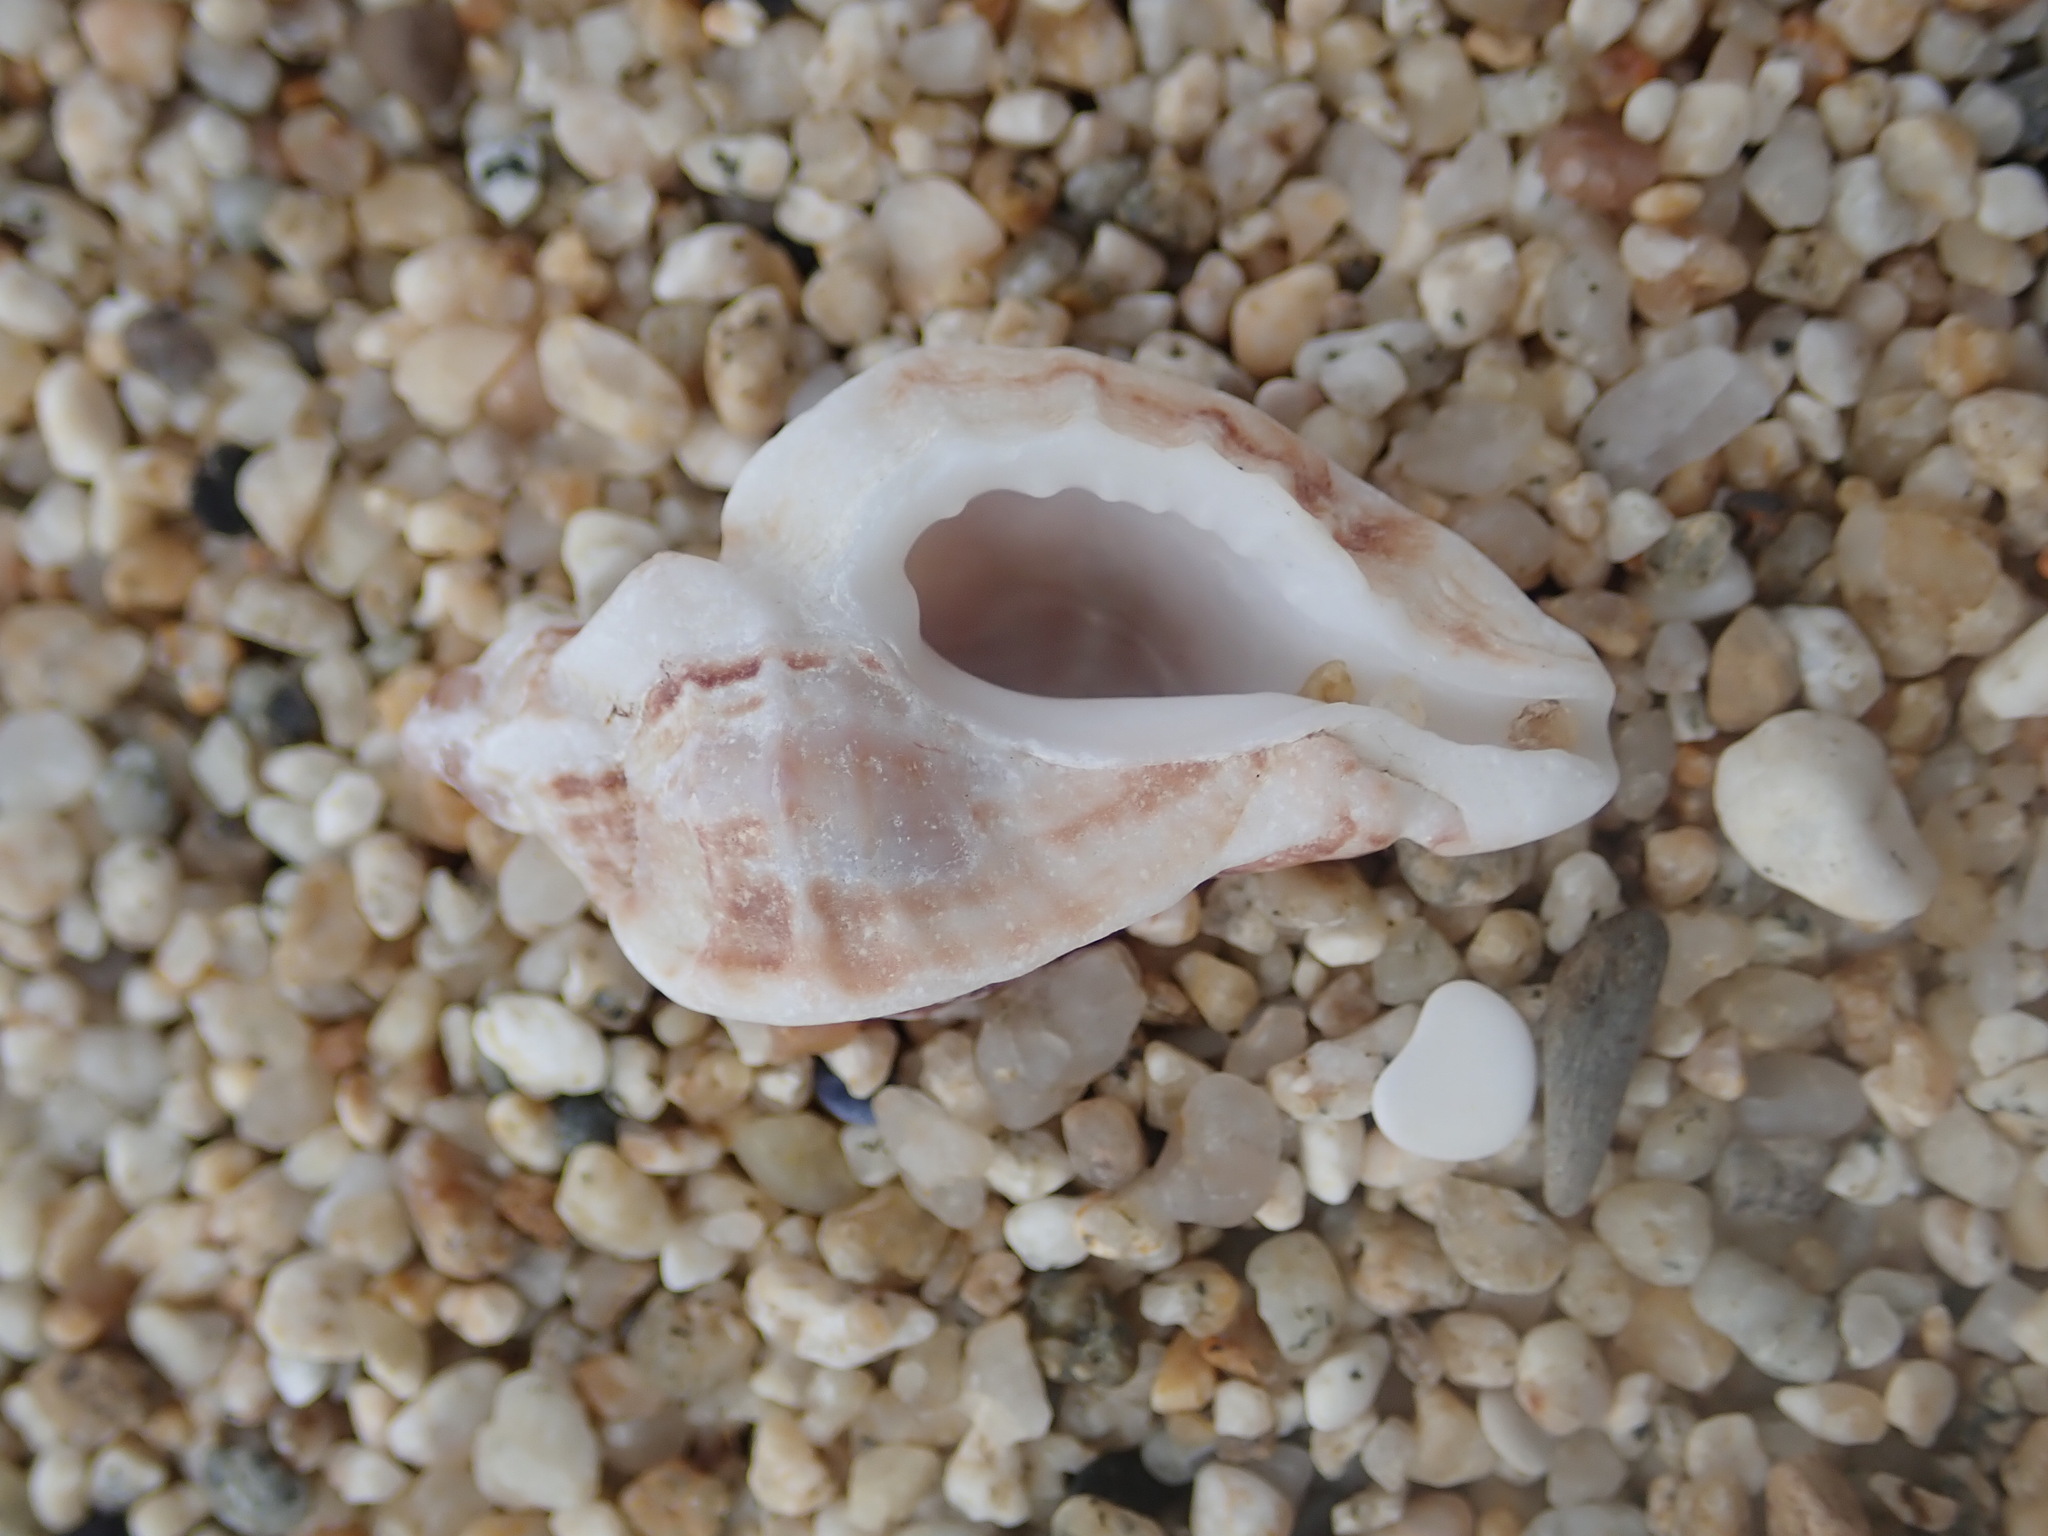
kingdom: Animalia
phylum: Mollusca
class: Gastropoda
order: Neogastropoda
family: Muricidae
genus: Ceratostoma
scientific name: Ceratostoma foliatum
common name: Foliate thorn purpura
